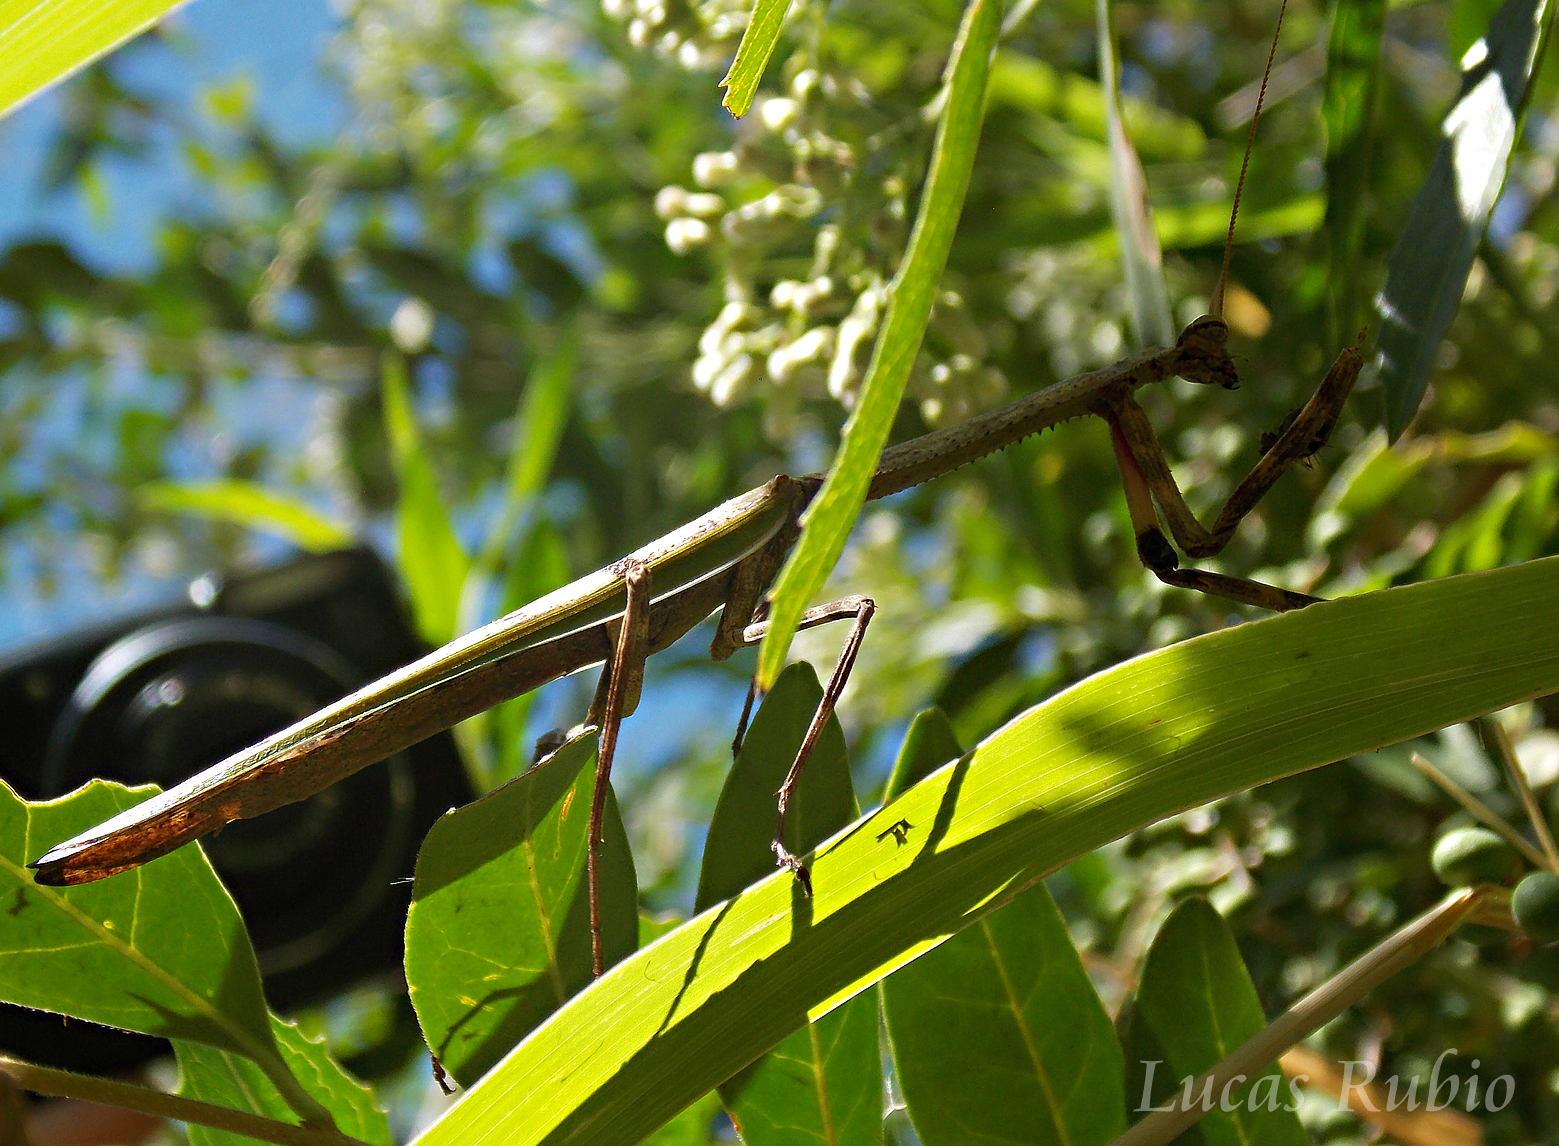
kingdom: Animalia
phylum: Arthropoda
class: Insecta
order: Mantodea
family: Mantidae
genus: Pseudovates
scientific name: Pseudovates iheringi
